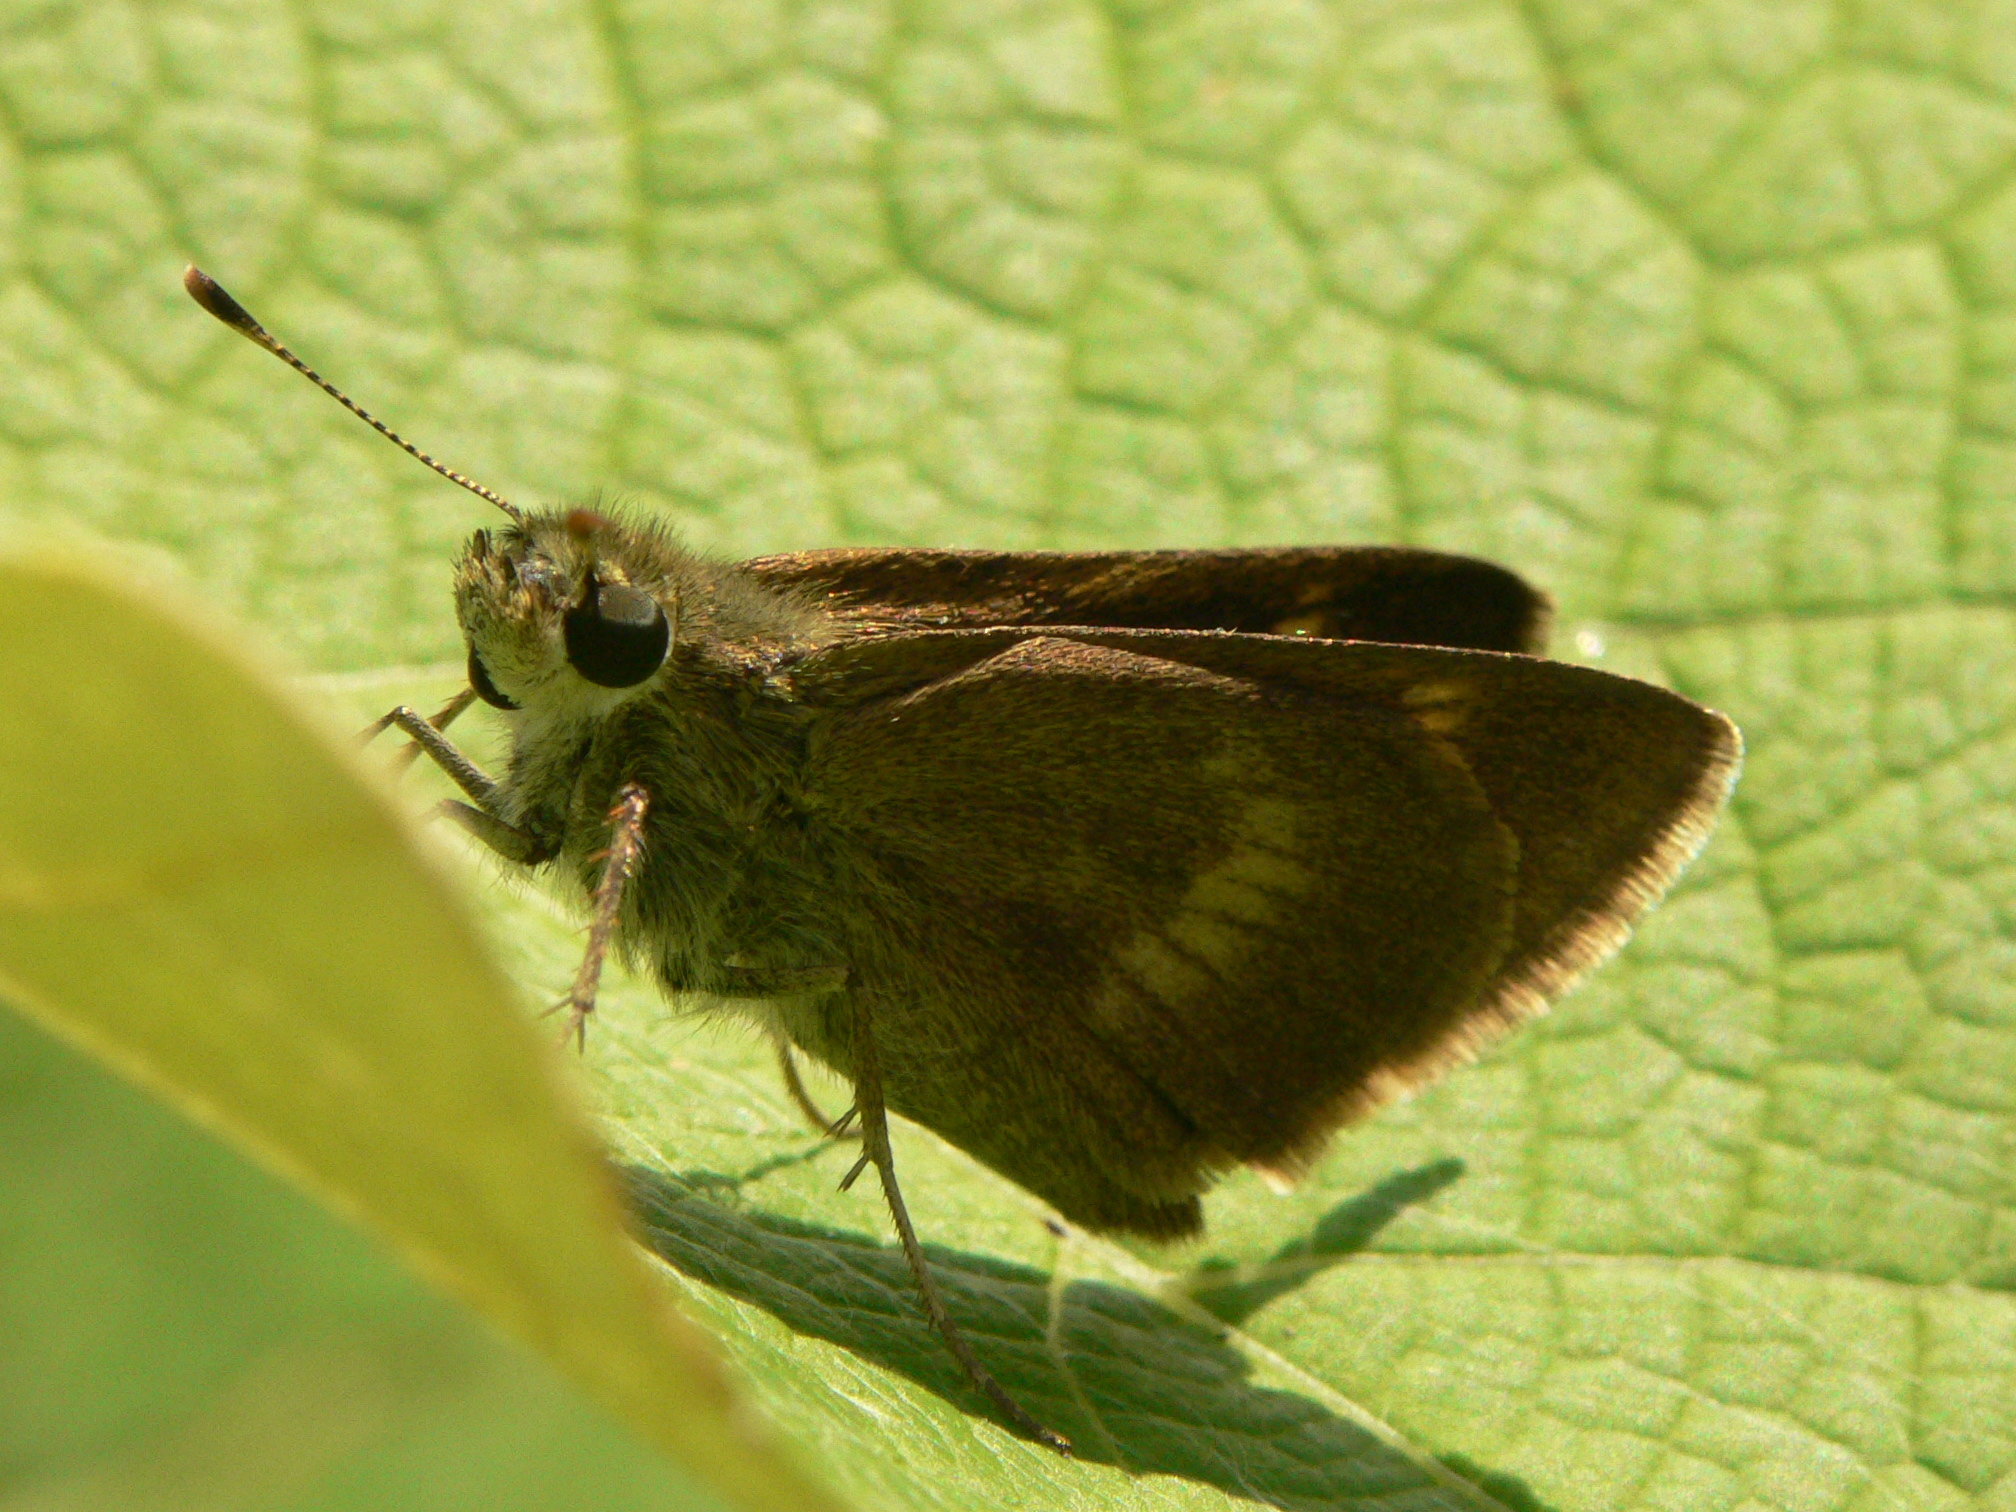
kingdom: Animalia
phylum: Arthropoda
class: Insecta
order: Lepidoptera
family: Hesperiidae
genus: Polites
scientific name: Polites egeremet
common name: Northern broken-dash
